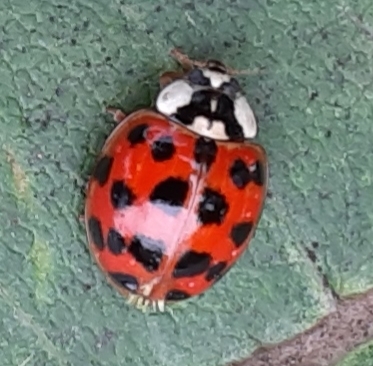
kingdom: Fungi
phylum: Ascomycota
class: Laboulbeniomycetes
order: Laboulbeniales
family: Laboulbeniaceae
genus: Hesperomyces
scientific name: Hesperomyces harmoniae
